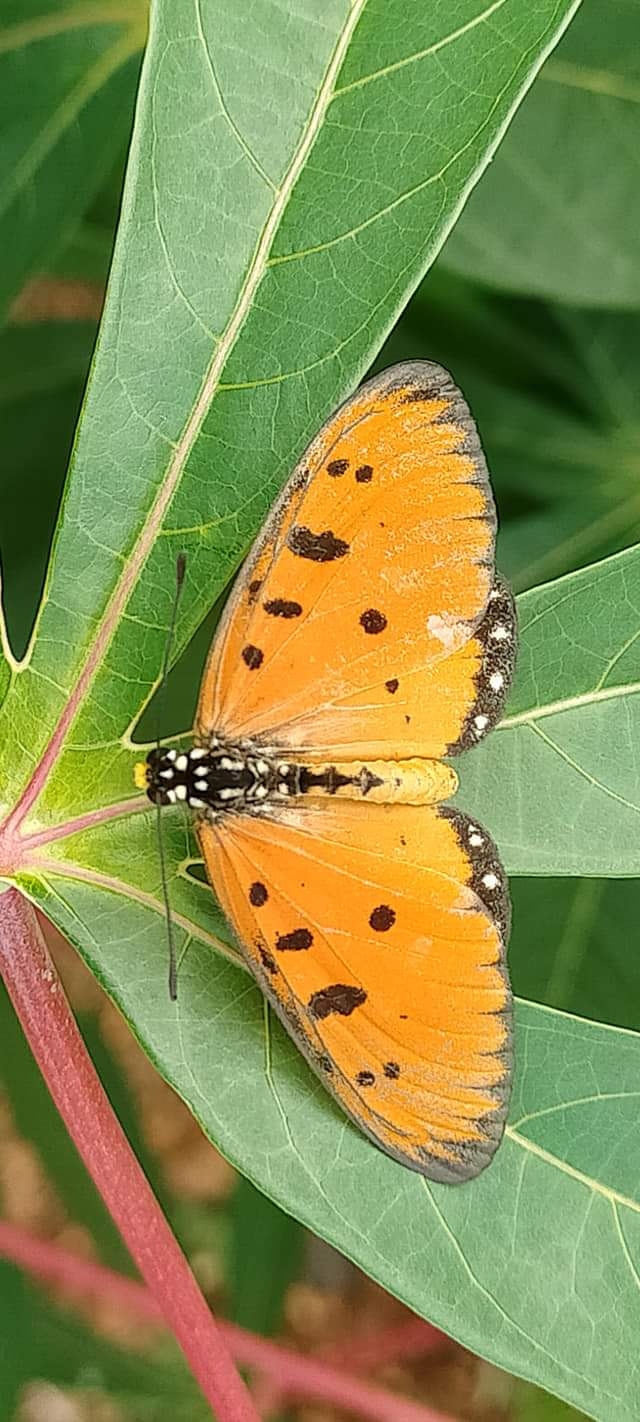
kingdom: Animalia
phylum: Arthropoda
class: Insecta
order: Lepidoptera
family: Nymphalidae
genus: Acraea
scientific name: Acraea terpsicore
